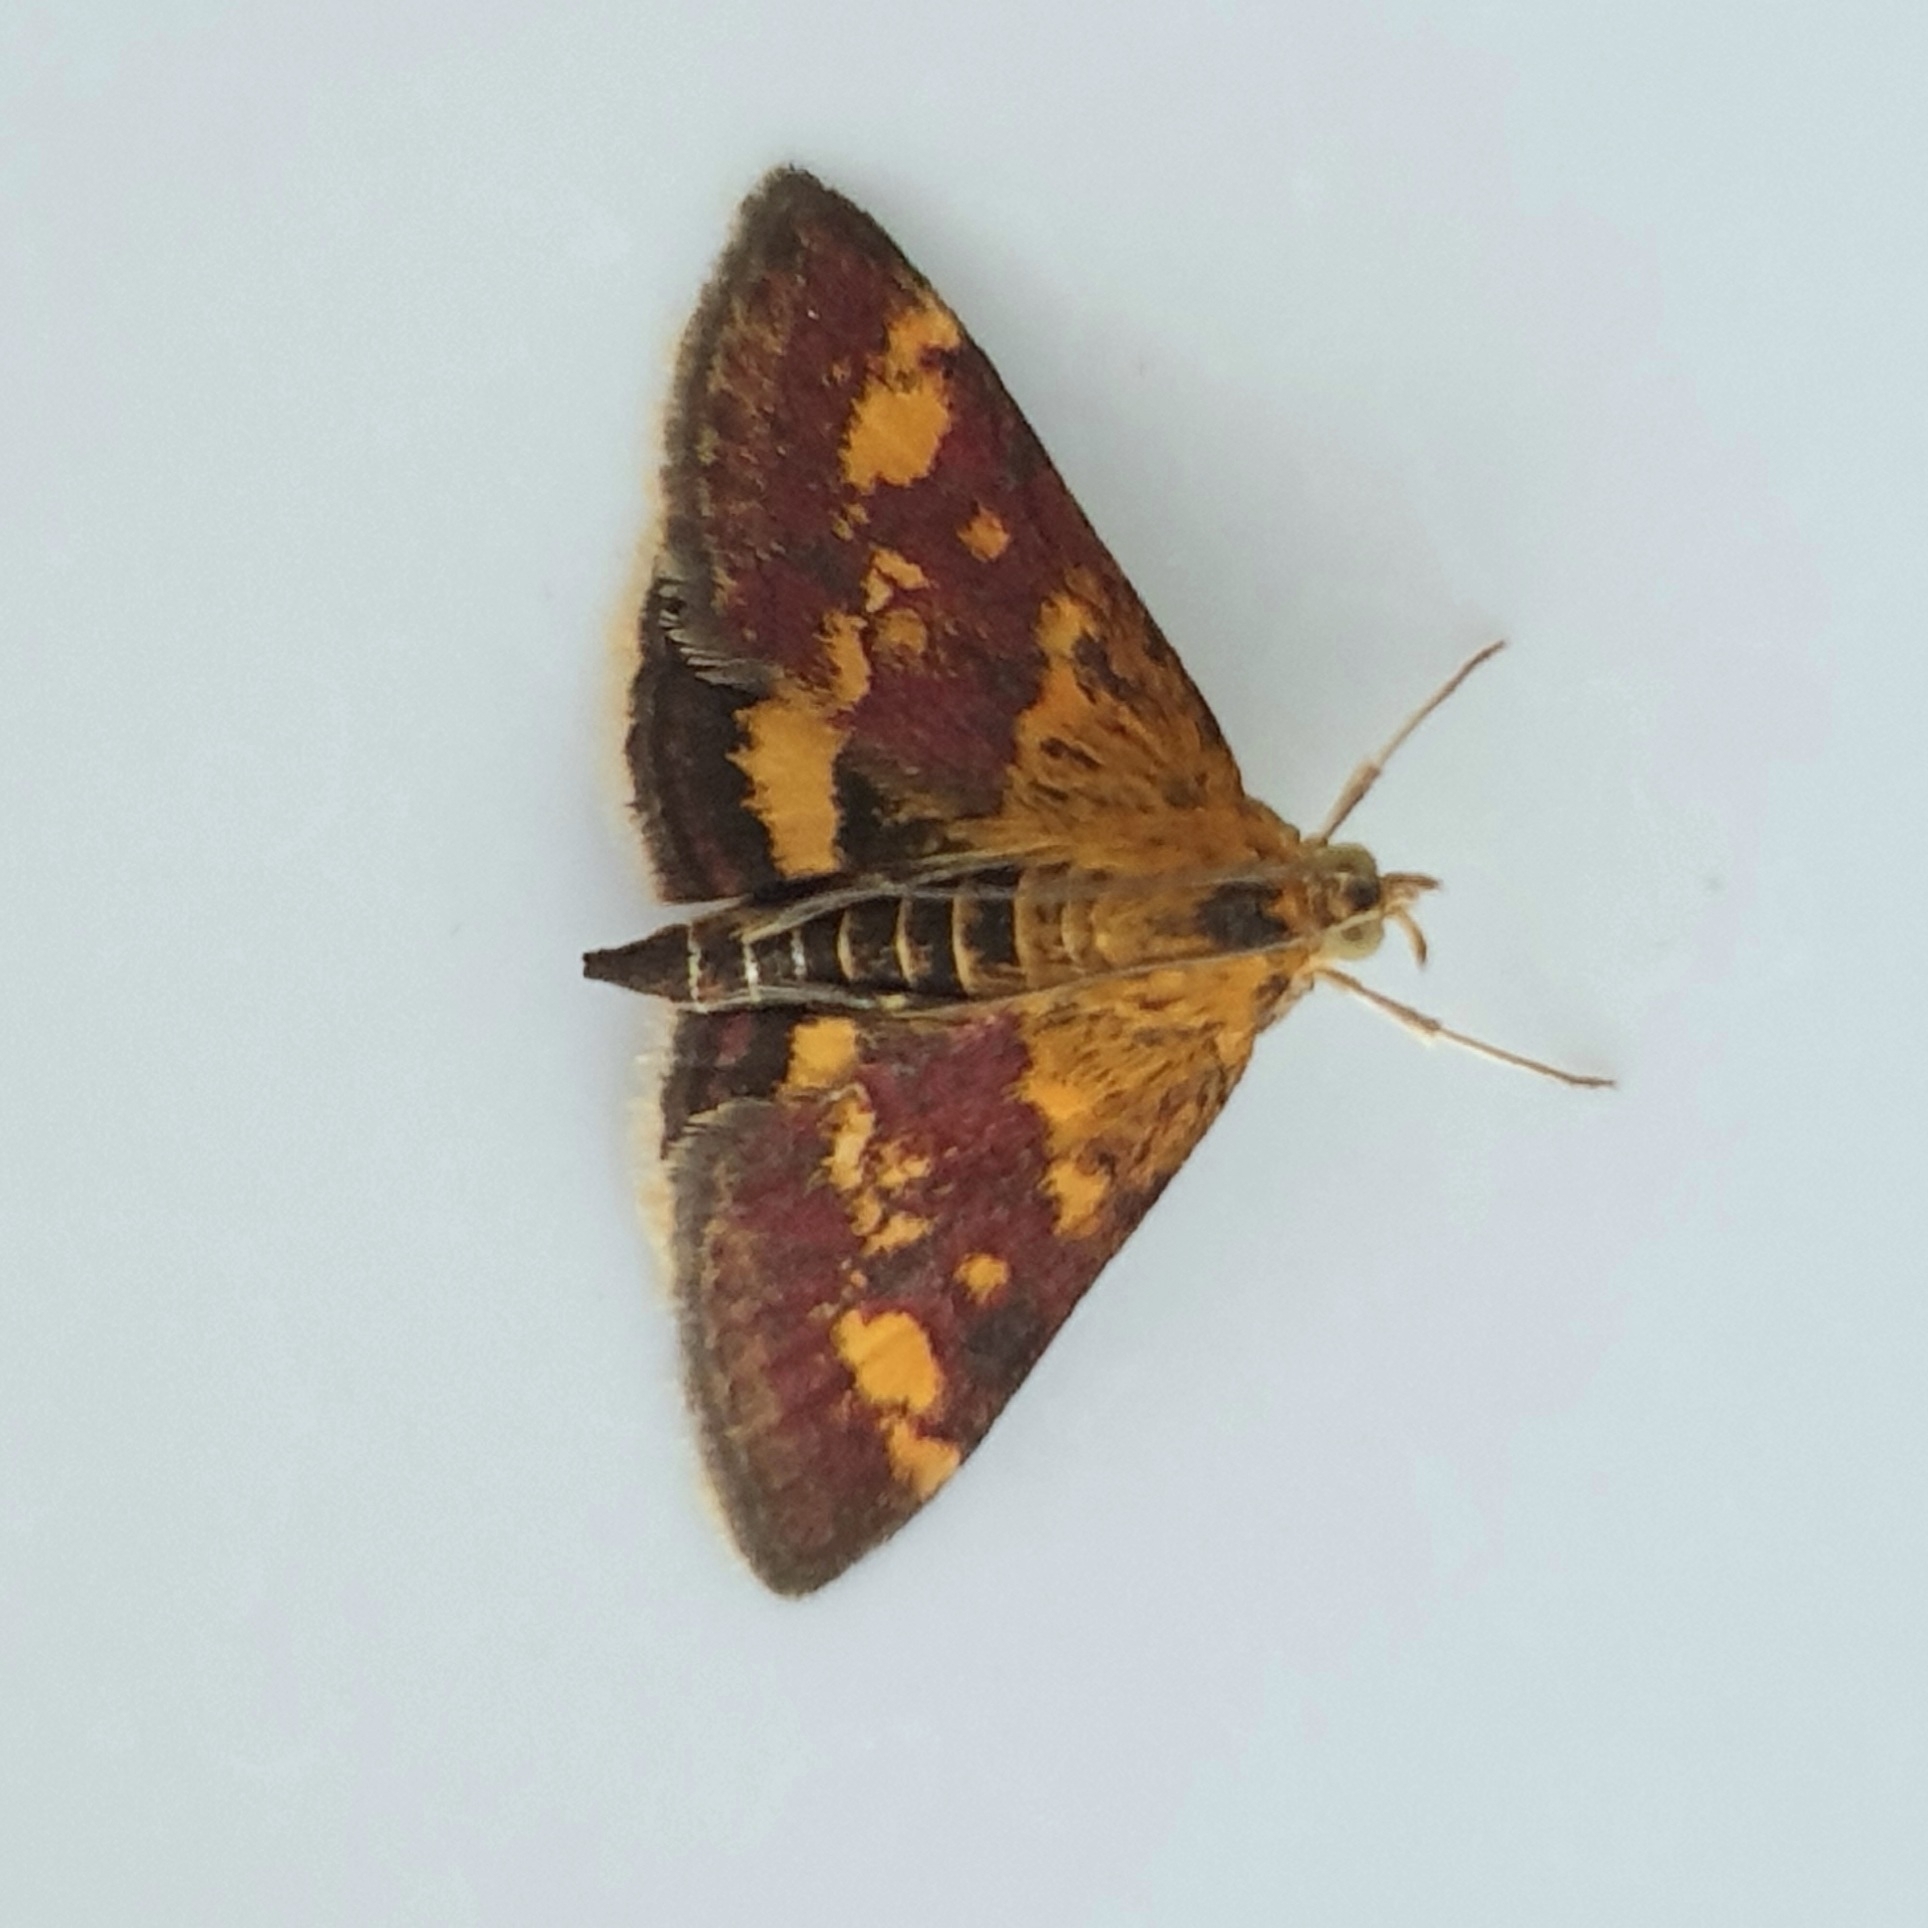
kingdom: Animalia
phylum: Arthropoda
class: Insecta
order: Lepidoptera
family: Crambidae
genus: Pyrausta
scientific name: Pyrausta aurata
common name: Small purple & gold
